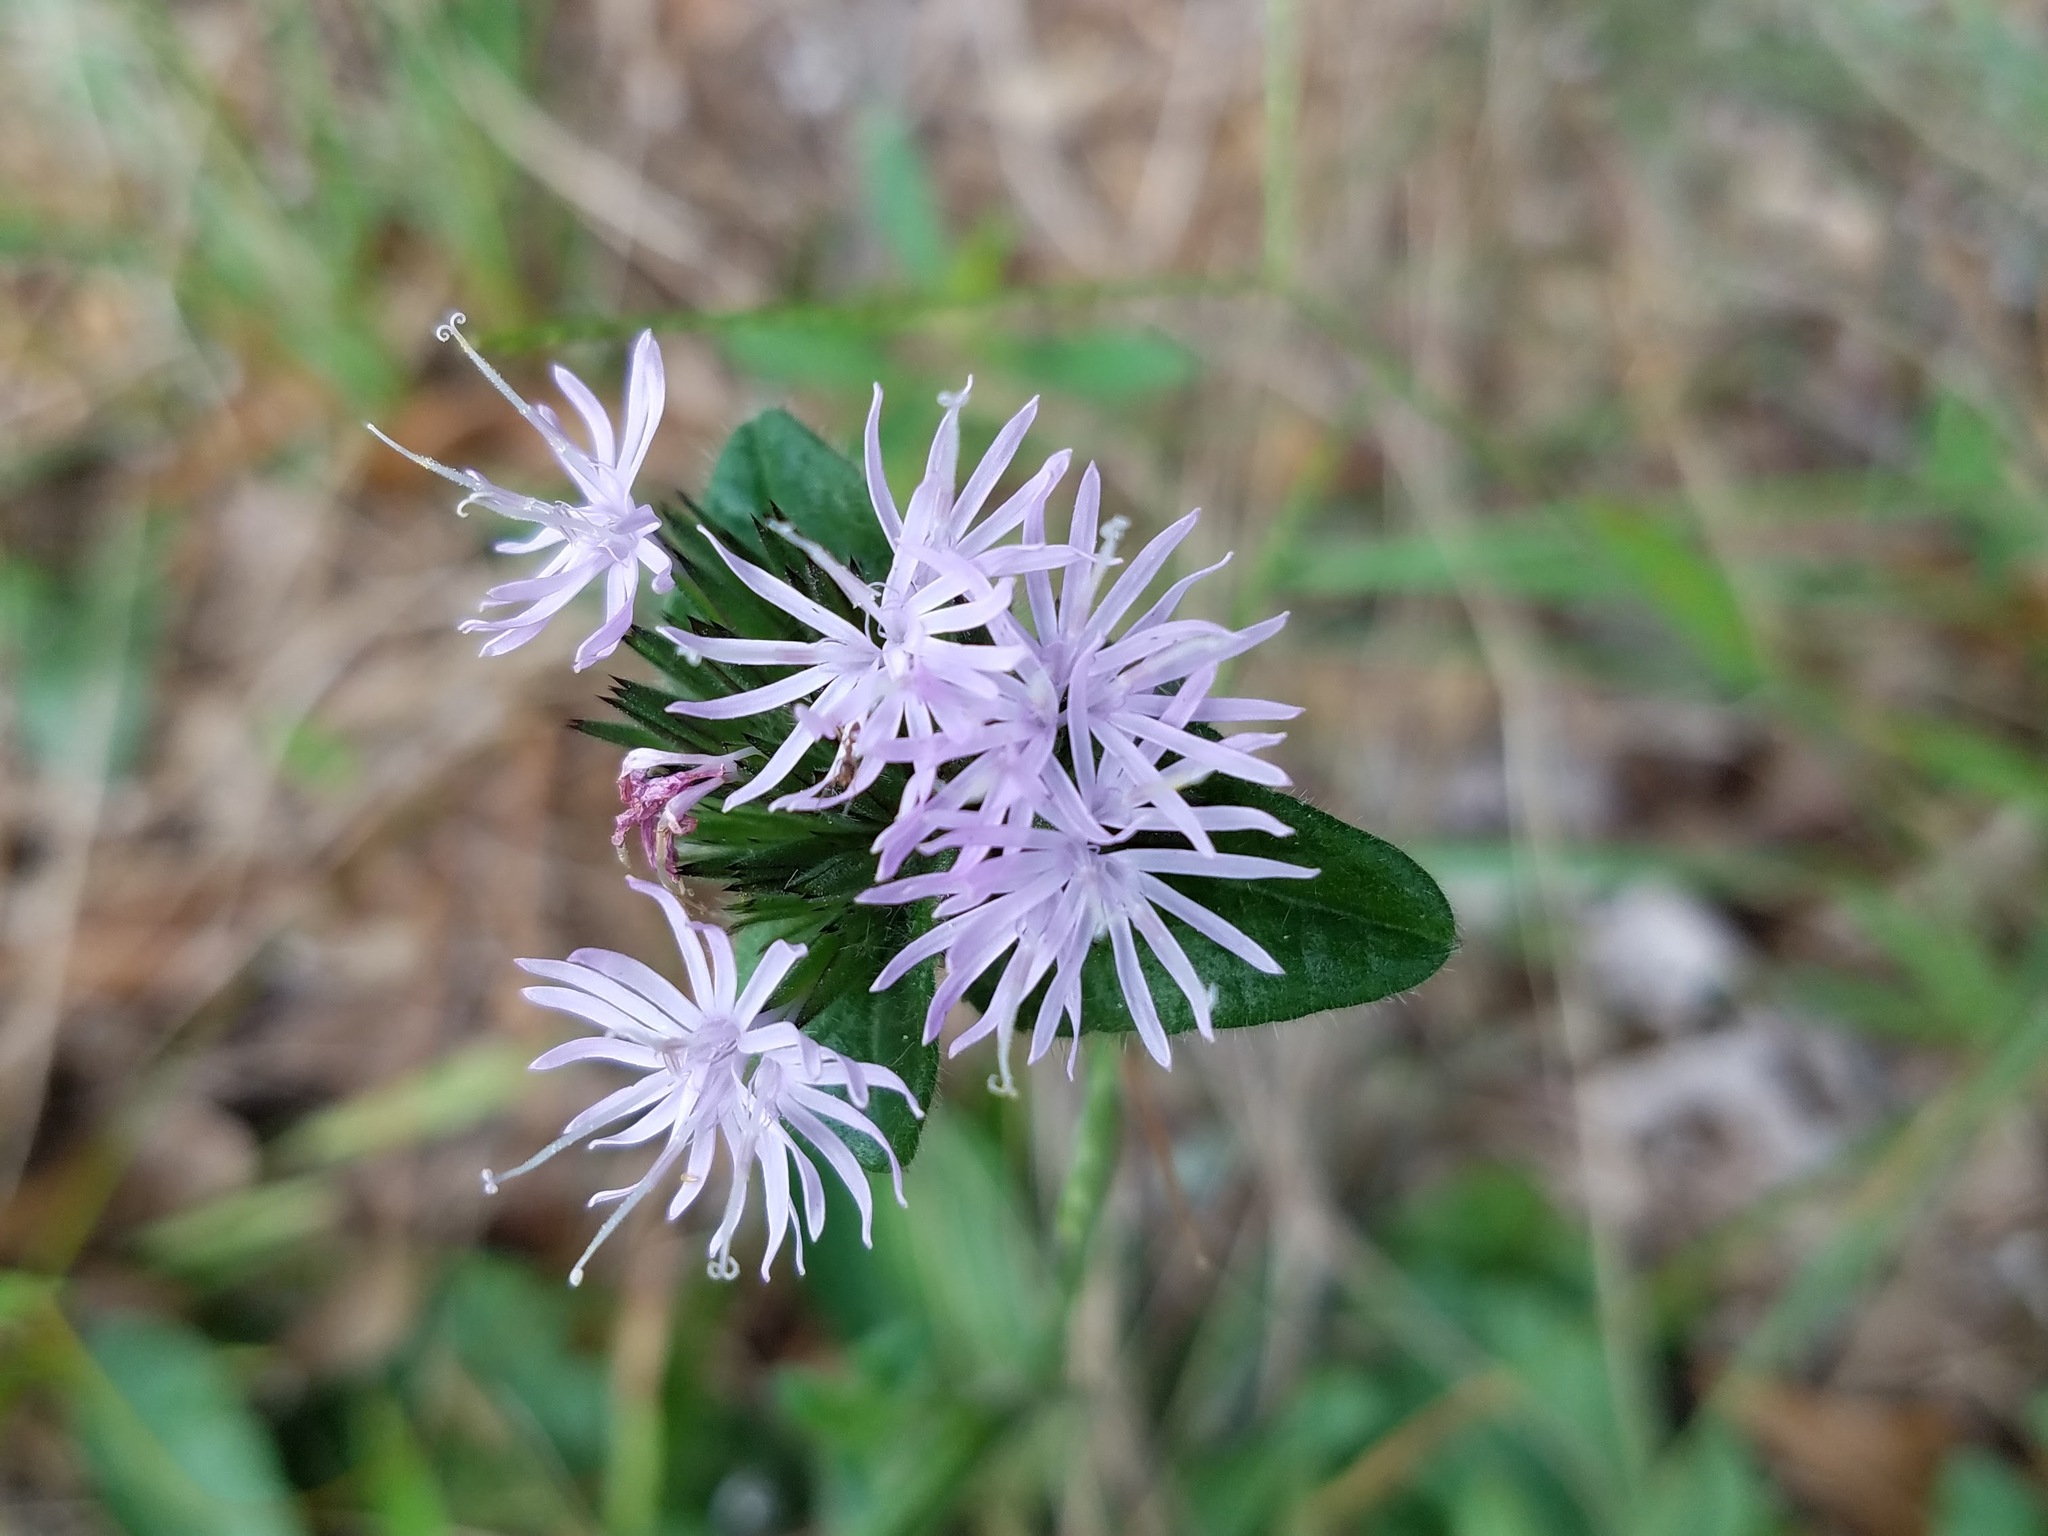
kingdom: Plantae
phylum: Tracheophyta
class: Magnoliopsida
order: Asterales
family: Asteraceae
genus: Elephantopus
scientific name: Elephantopus tomentosus
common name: Tobacco-weed
